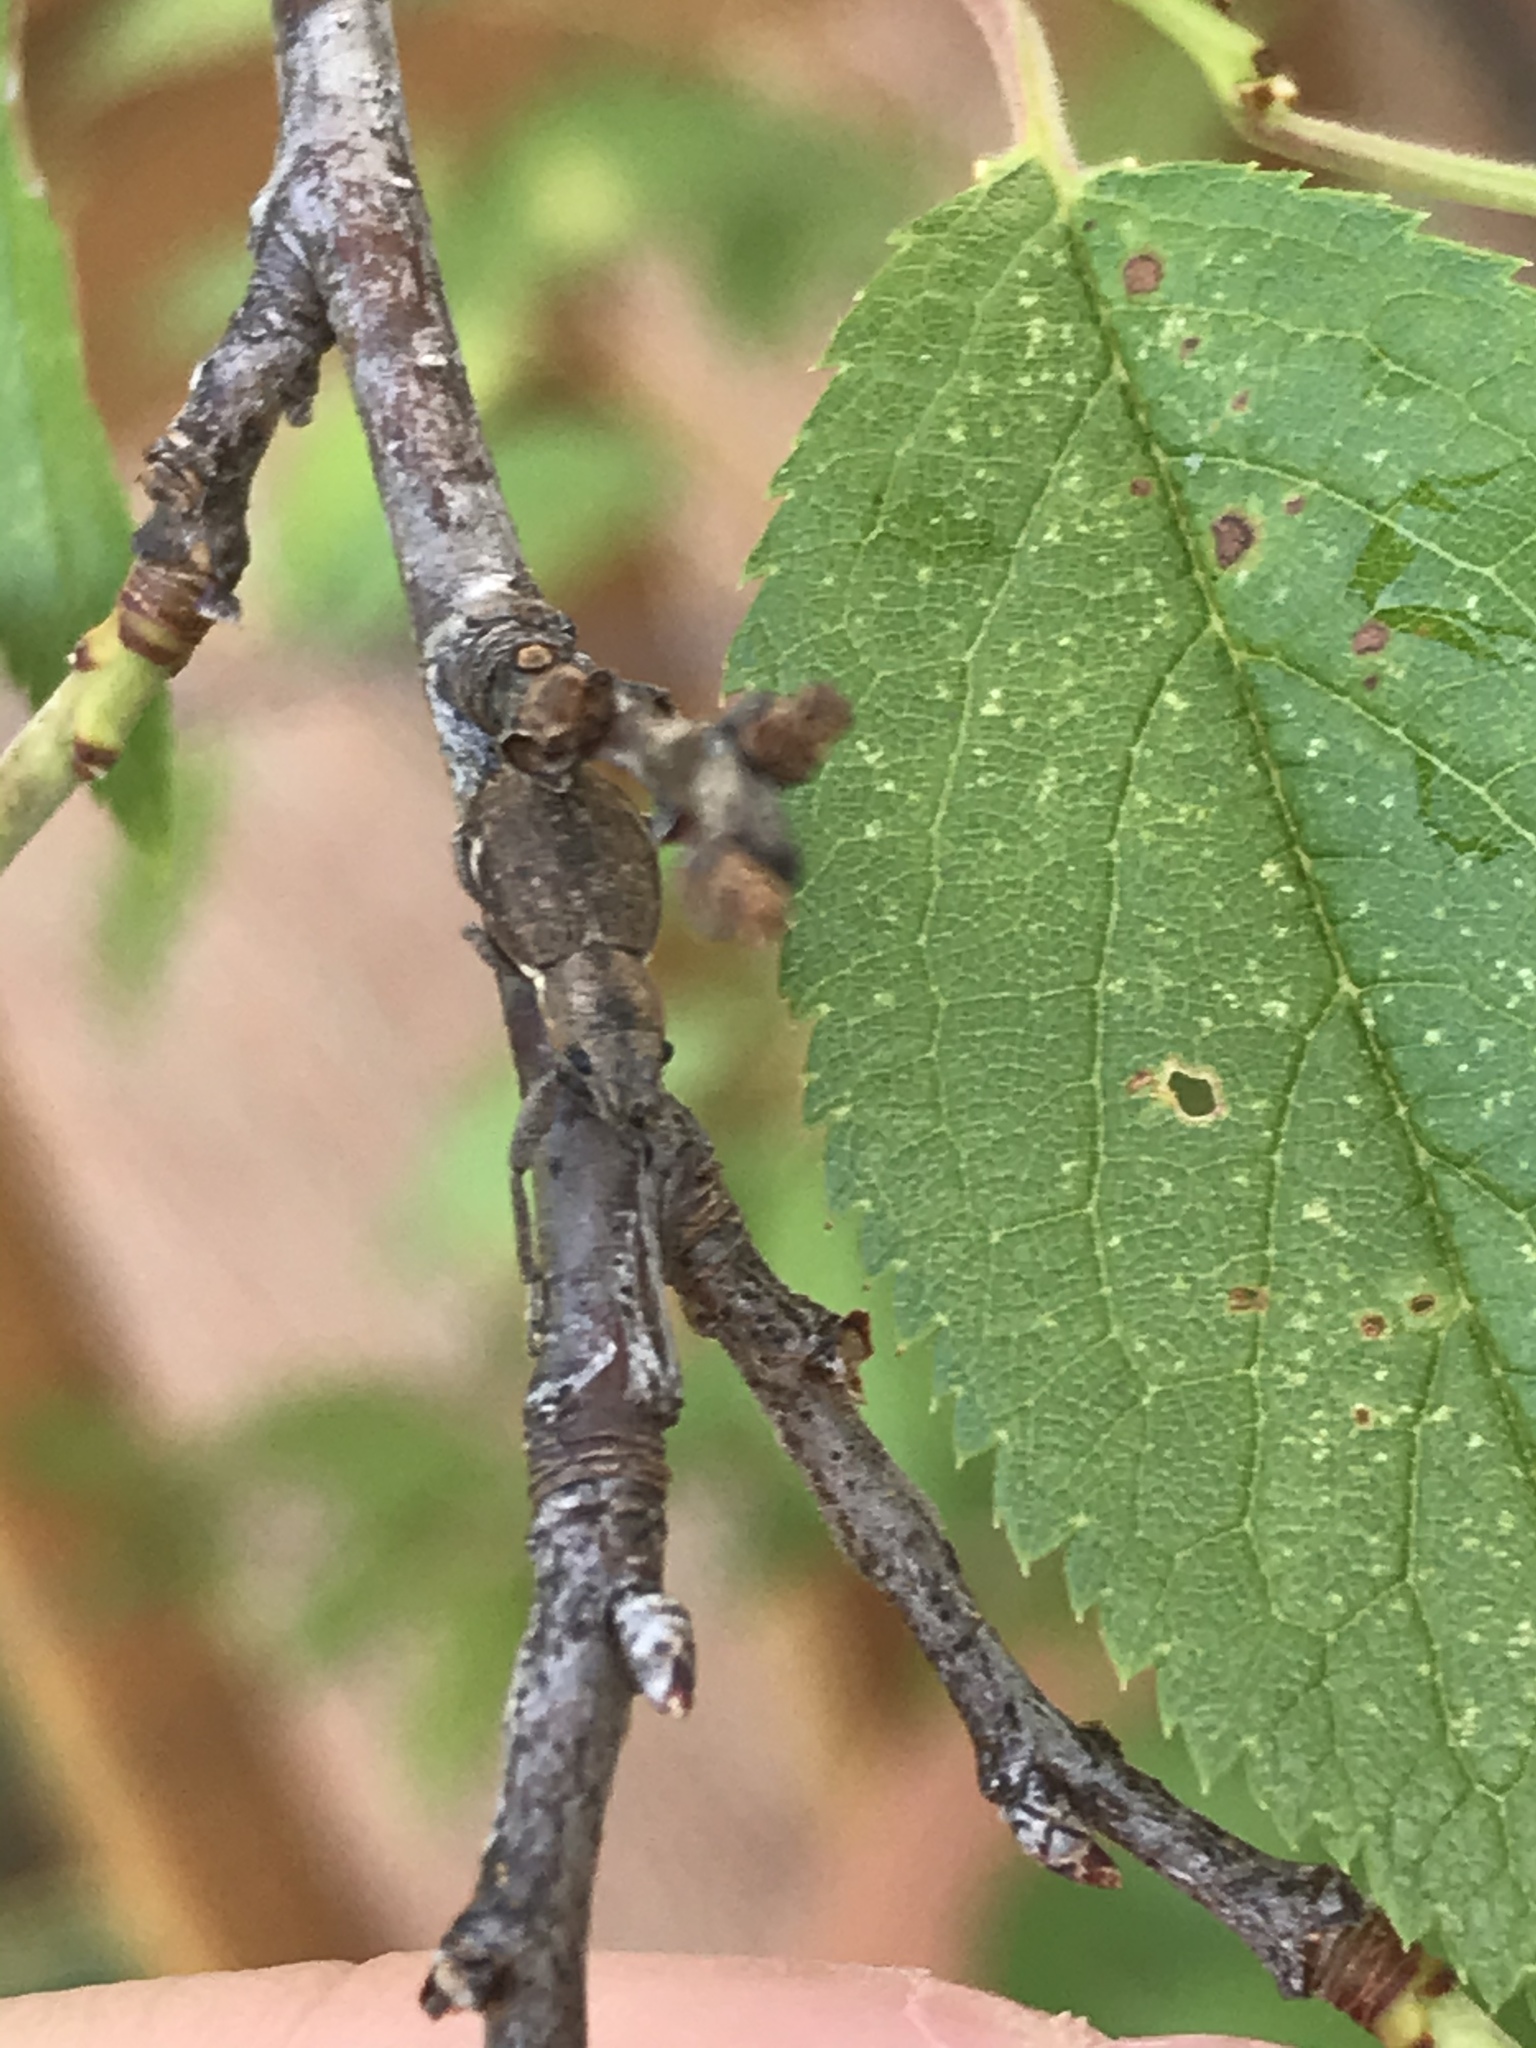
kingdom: Animalia
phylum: Arthropoda
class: Insecta
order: Coleoptera
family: Curculionidae
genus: Naupactus
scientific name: Naupactus cervinus
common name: Fuller rose beetle
